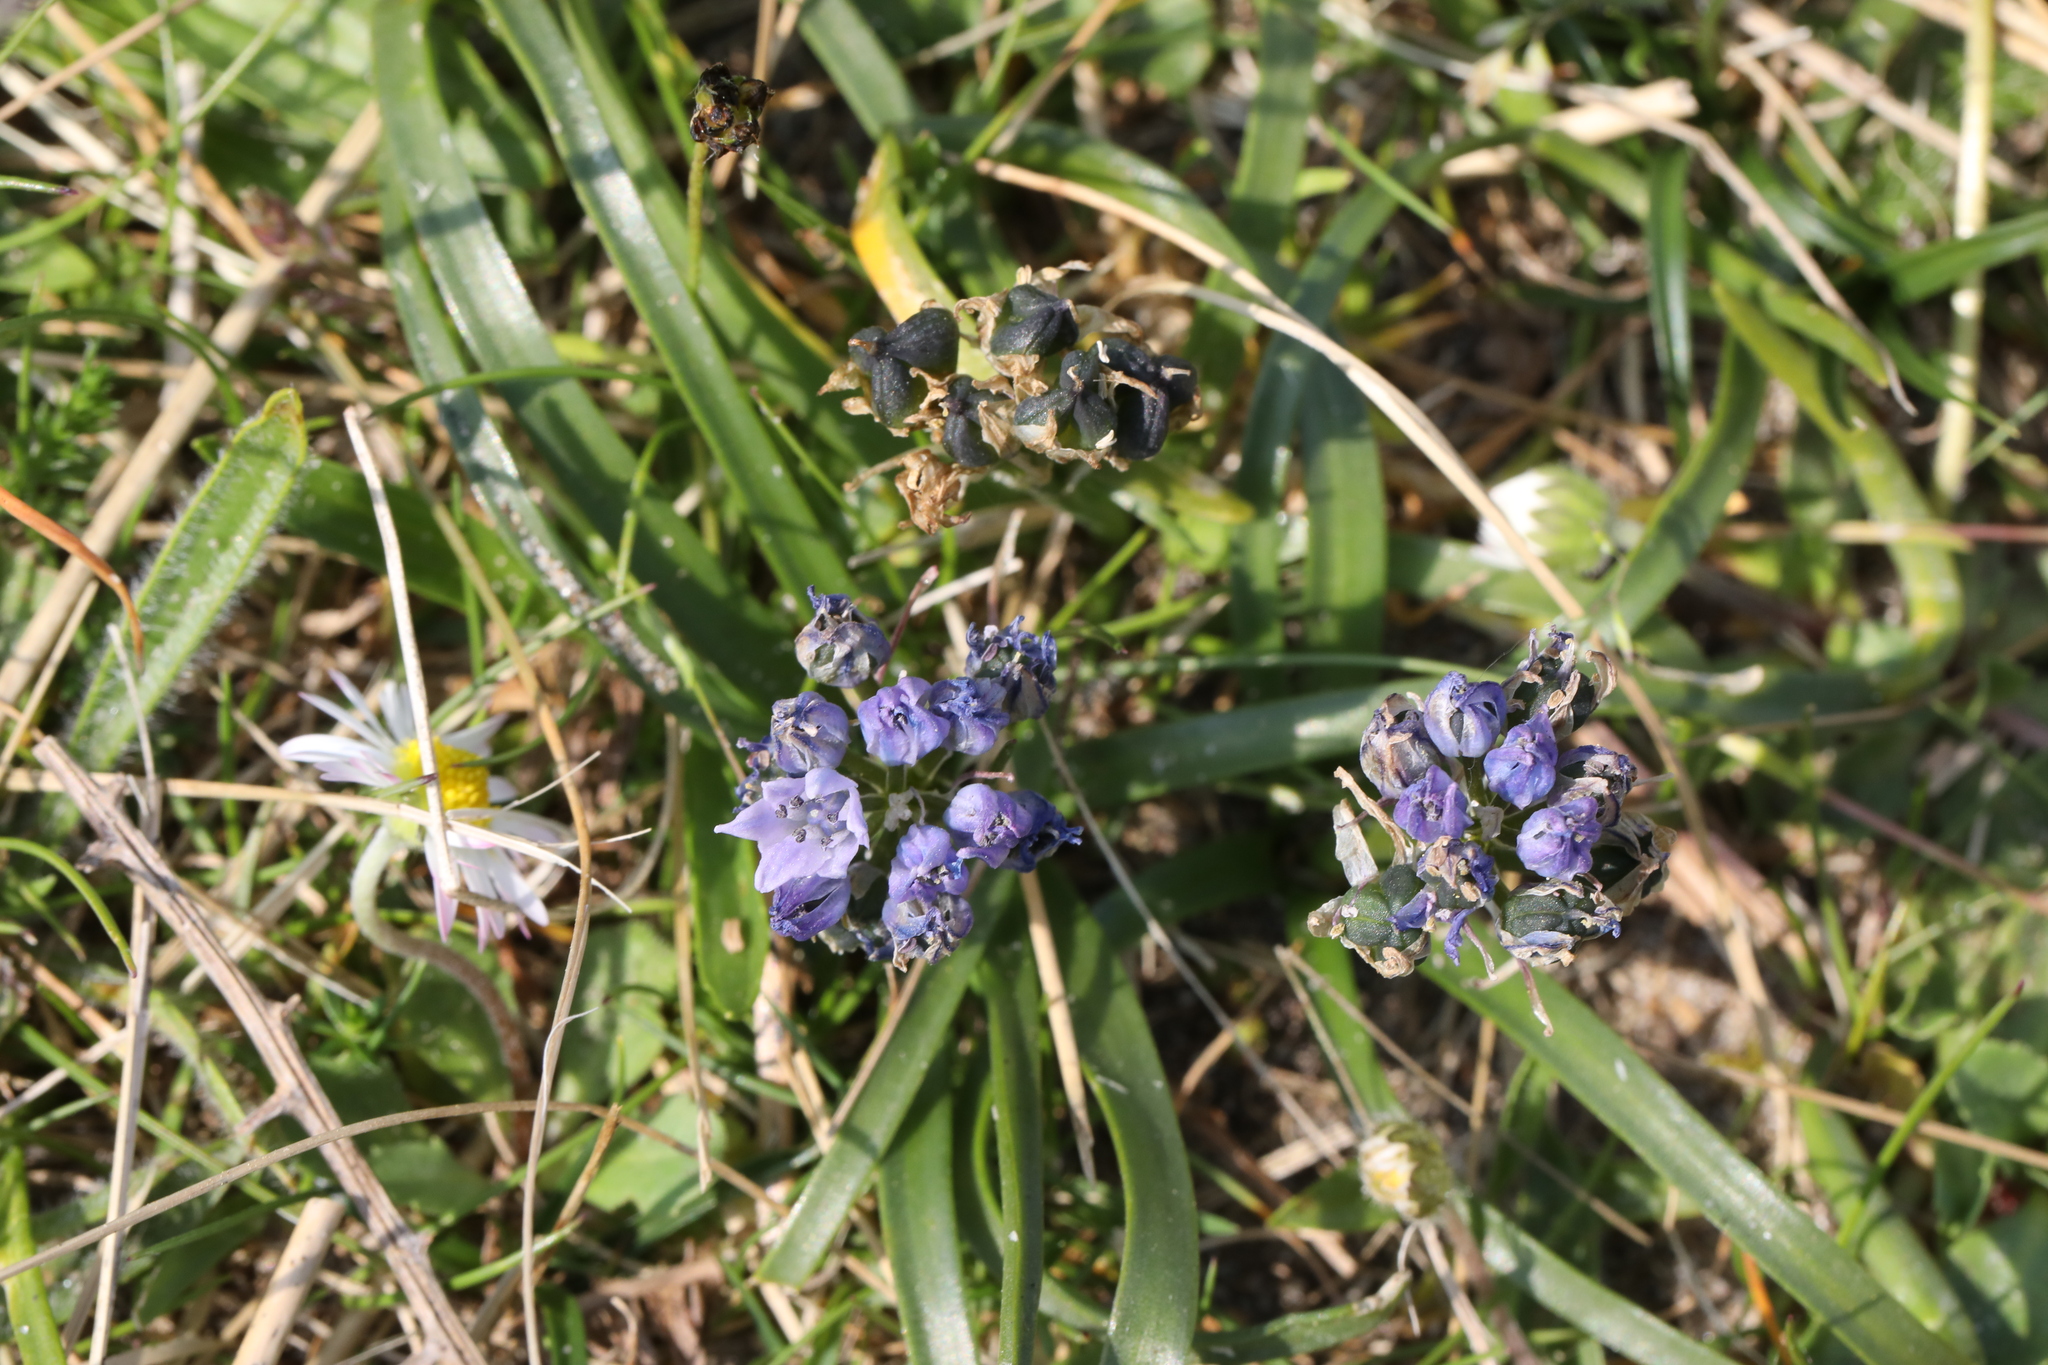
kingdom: Plantae
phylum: Tracheophyta
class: Liliopsida
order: Asparagales
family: Asparagaceae
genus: Scilla
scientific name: Scilla verna
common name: Spring squill
